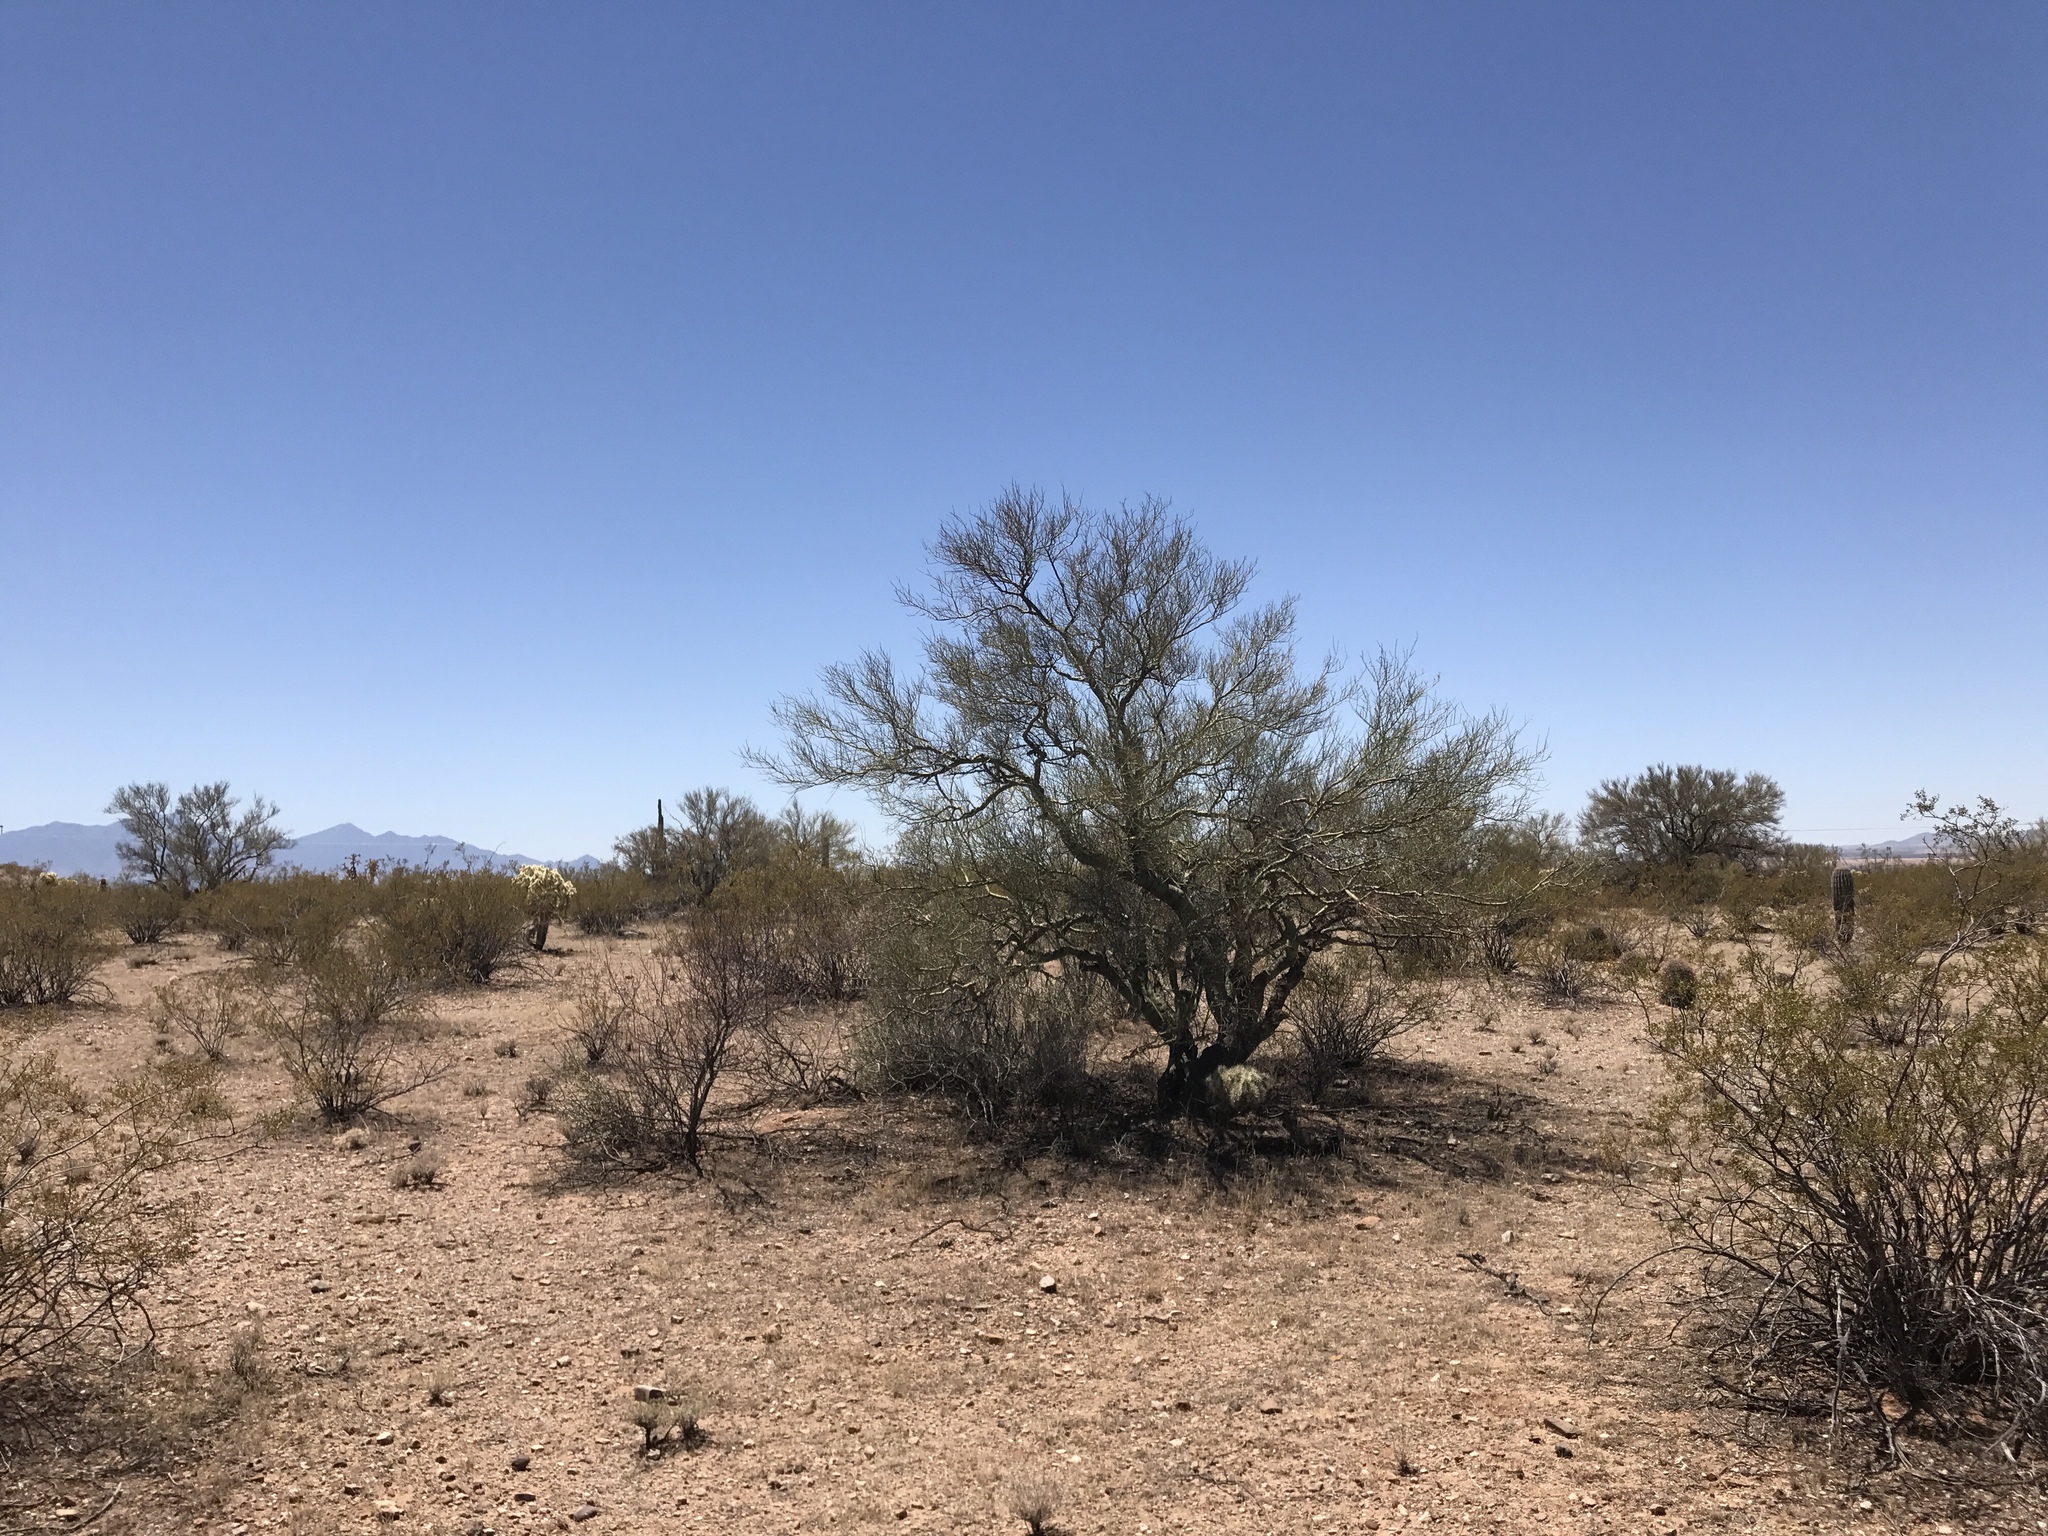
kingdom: Plantae
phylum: Tracheophyta
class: Magnoliopsida
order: Fabales
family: Fabaceae
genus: Parkinsonia
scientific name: Parkinsonia microphylla
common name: Yellow paloverde
